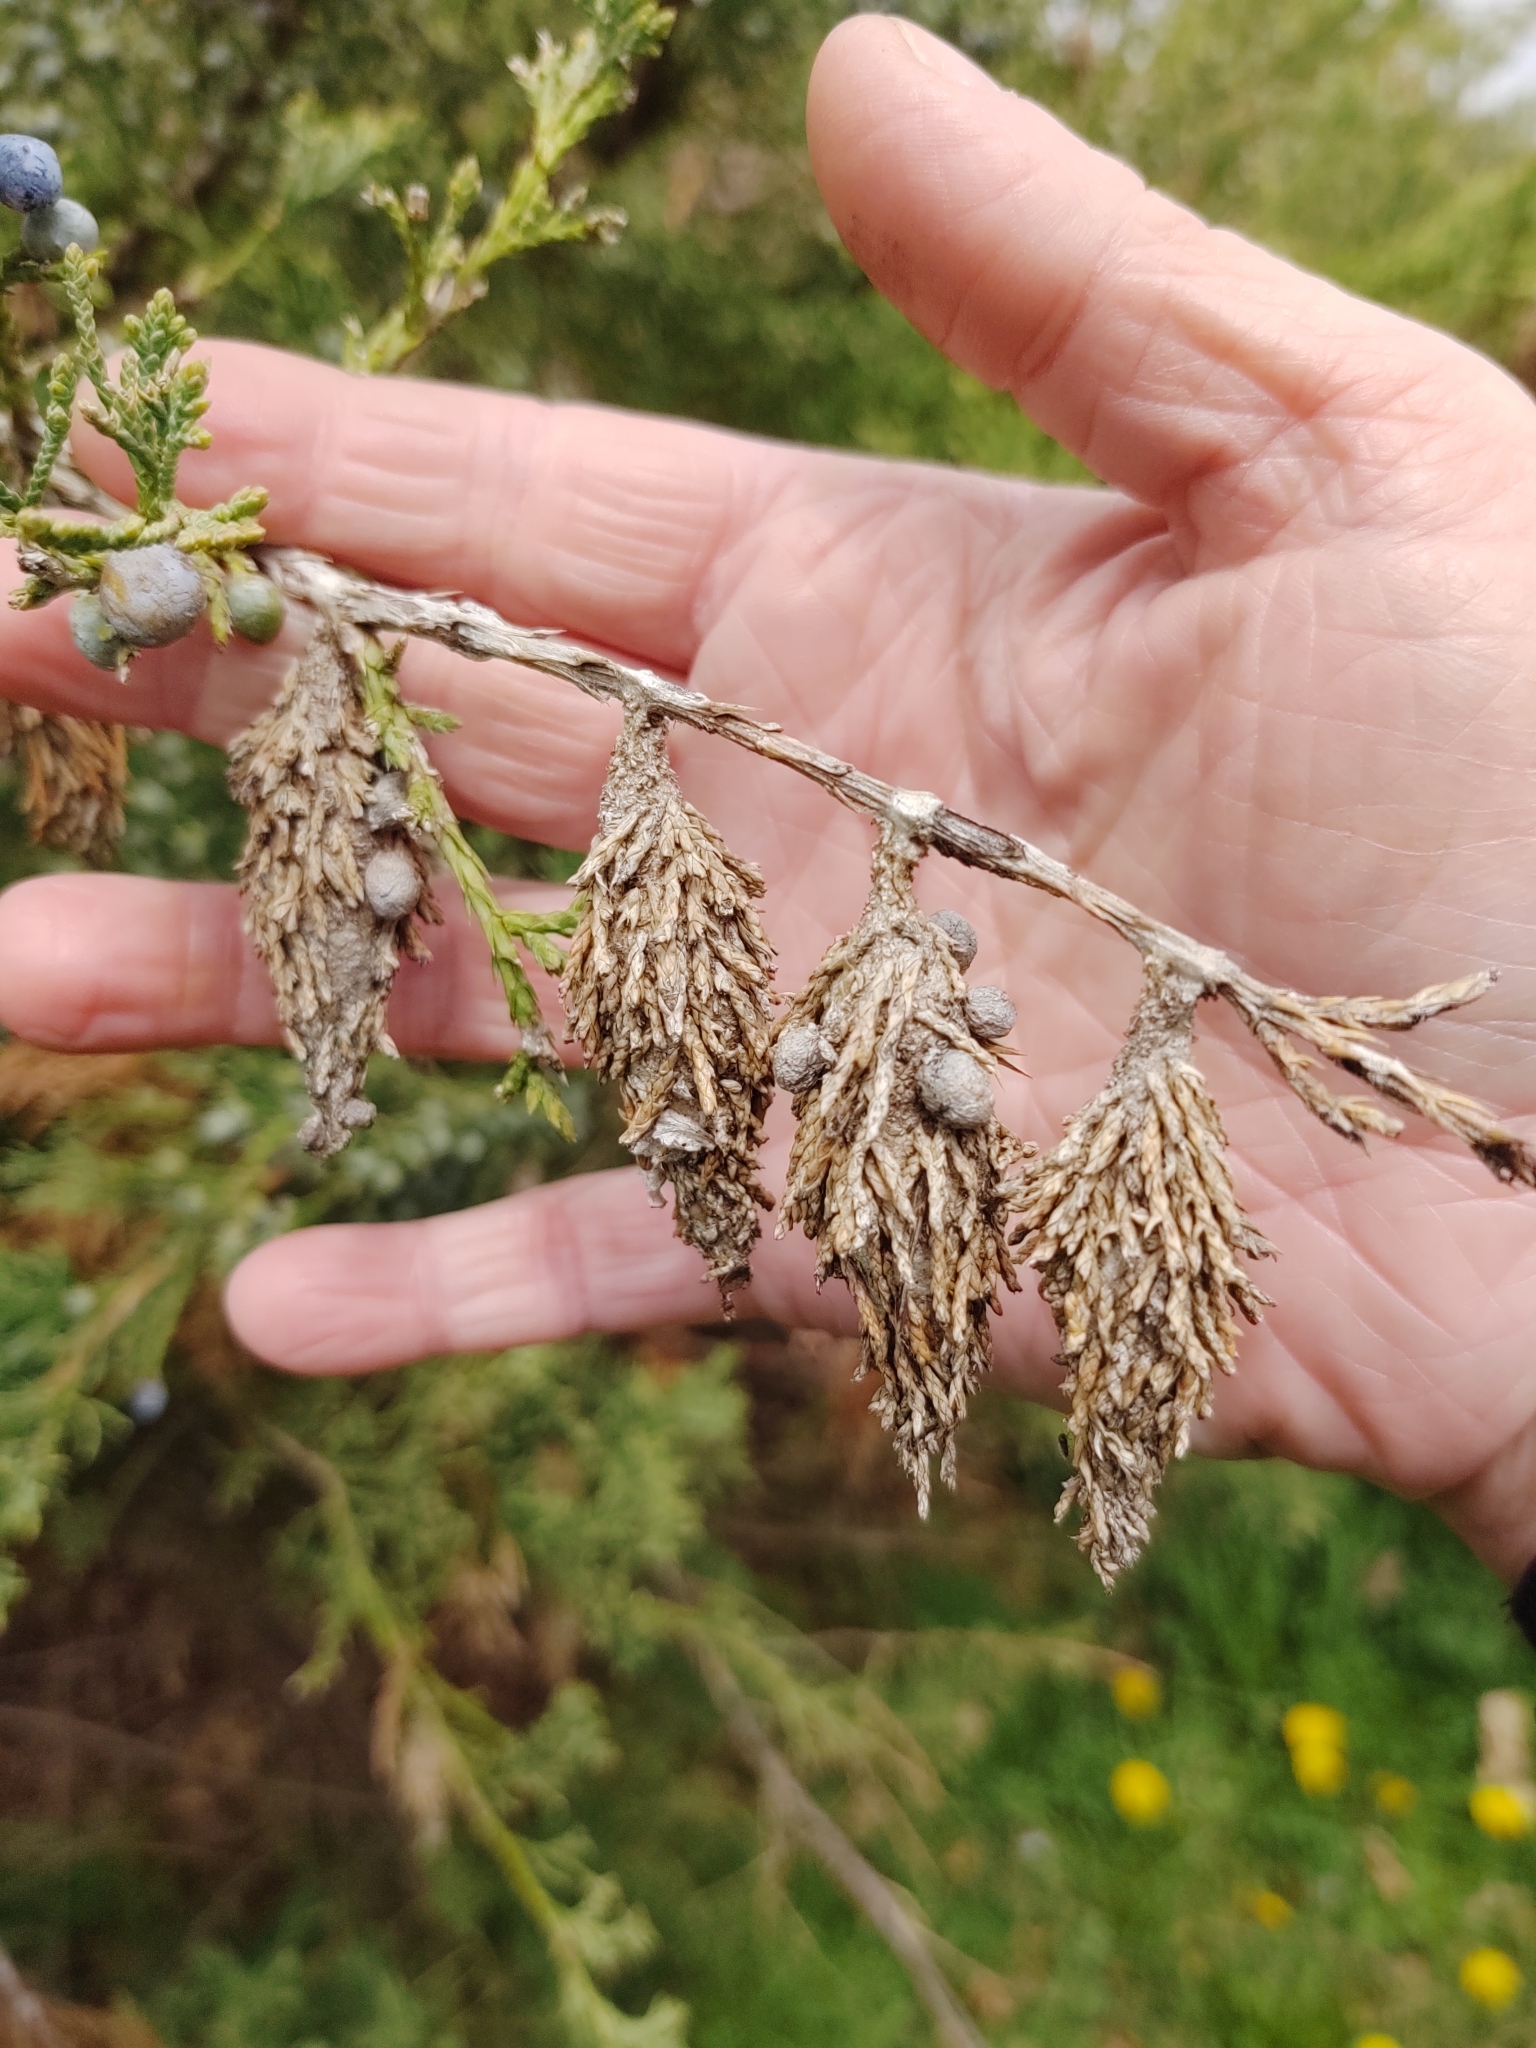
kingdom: Animalia
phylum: Arthropoda
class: Insecta
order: Lepidoptera
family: Psychidae
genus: Thyridopteryx
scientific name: Thyridopteryx ephemeraeformis
